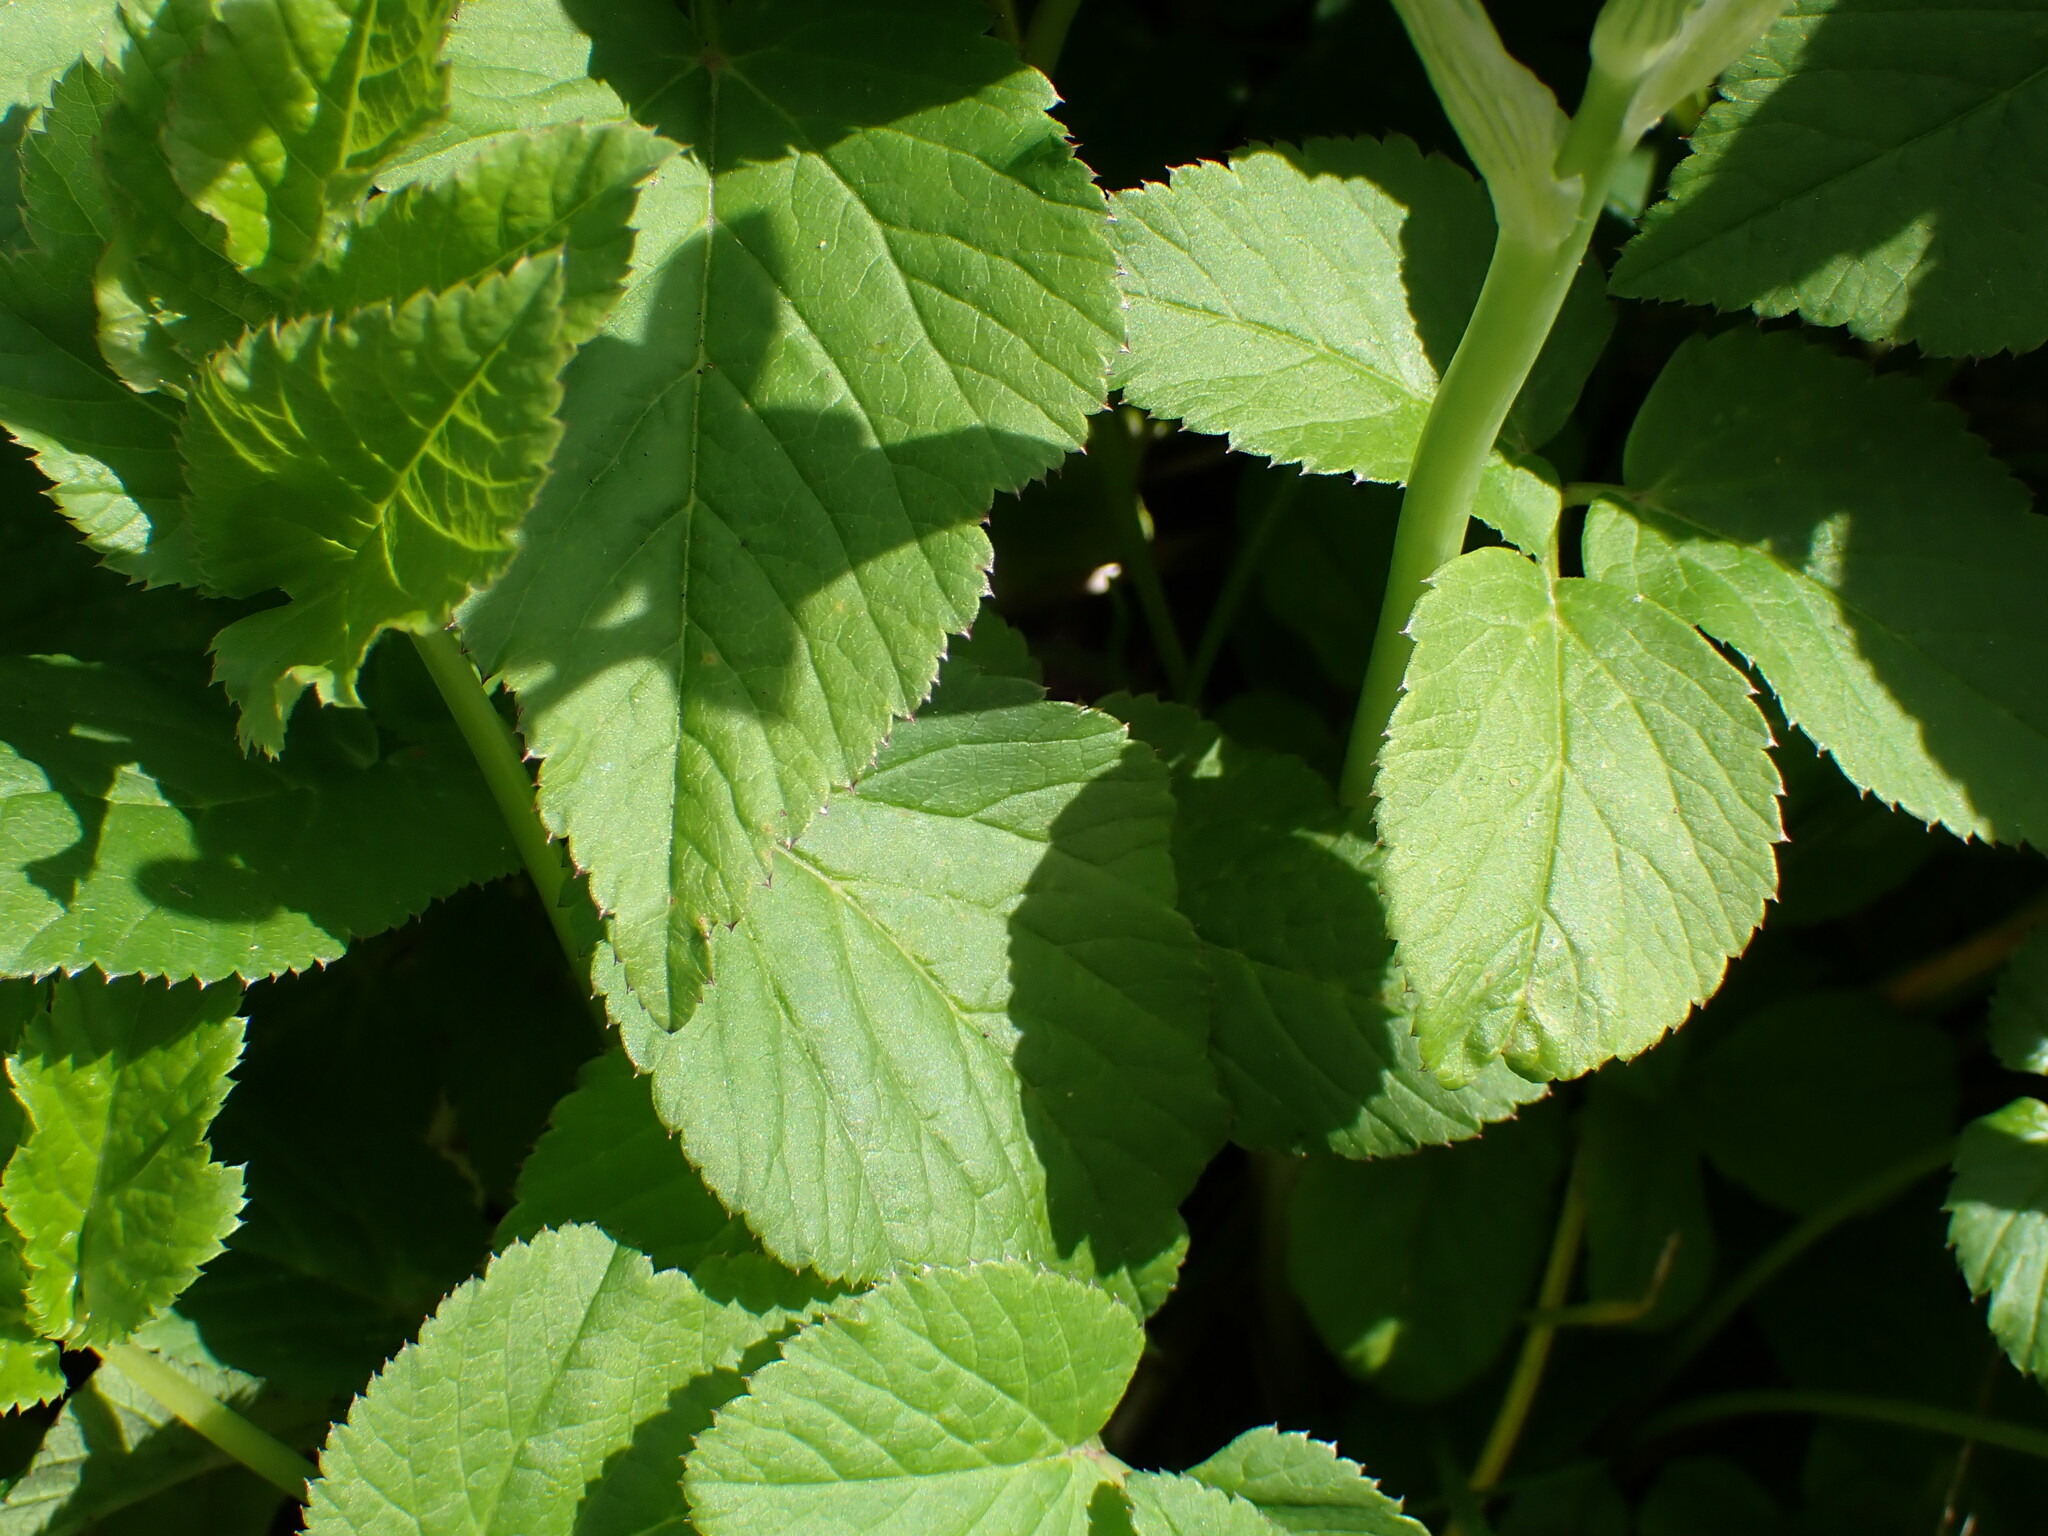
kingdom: Plantae
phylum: Tracheophyta
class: Liliopsida
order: Asparagales
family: Asparagaceae
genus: Ornithogalum
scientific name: Ornithogalum umbellatum
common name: Garden star-of-bethlehem
